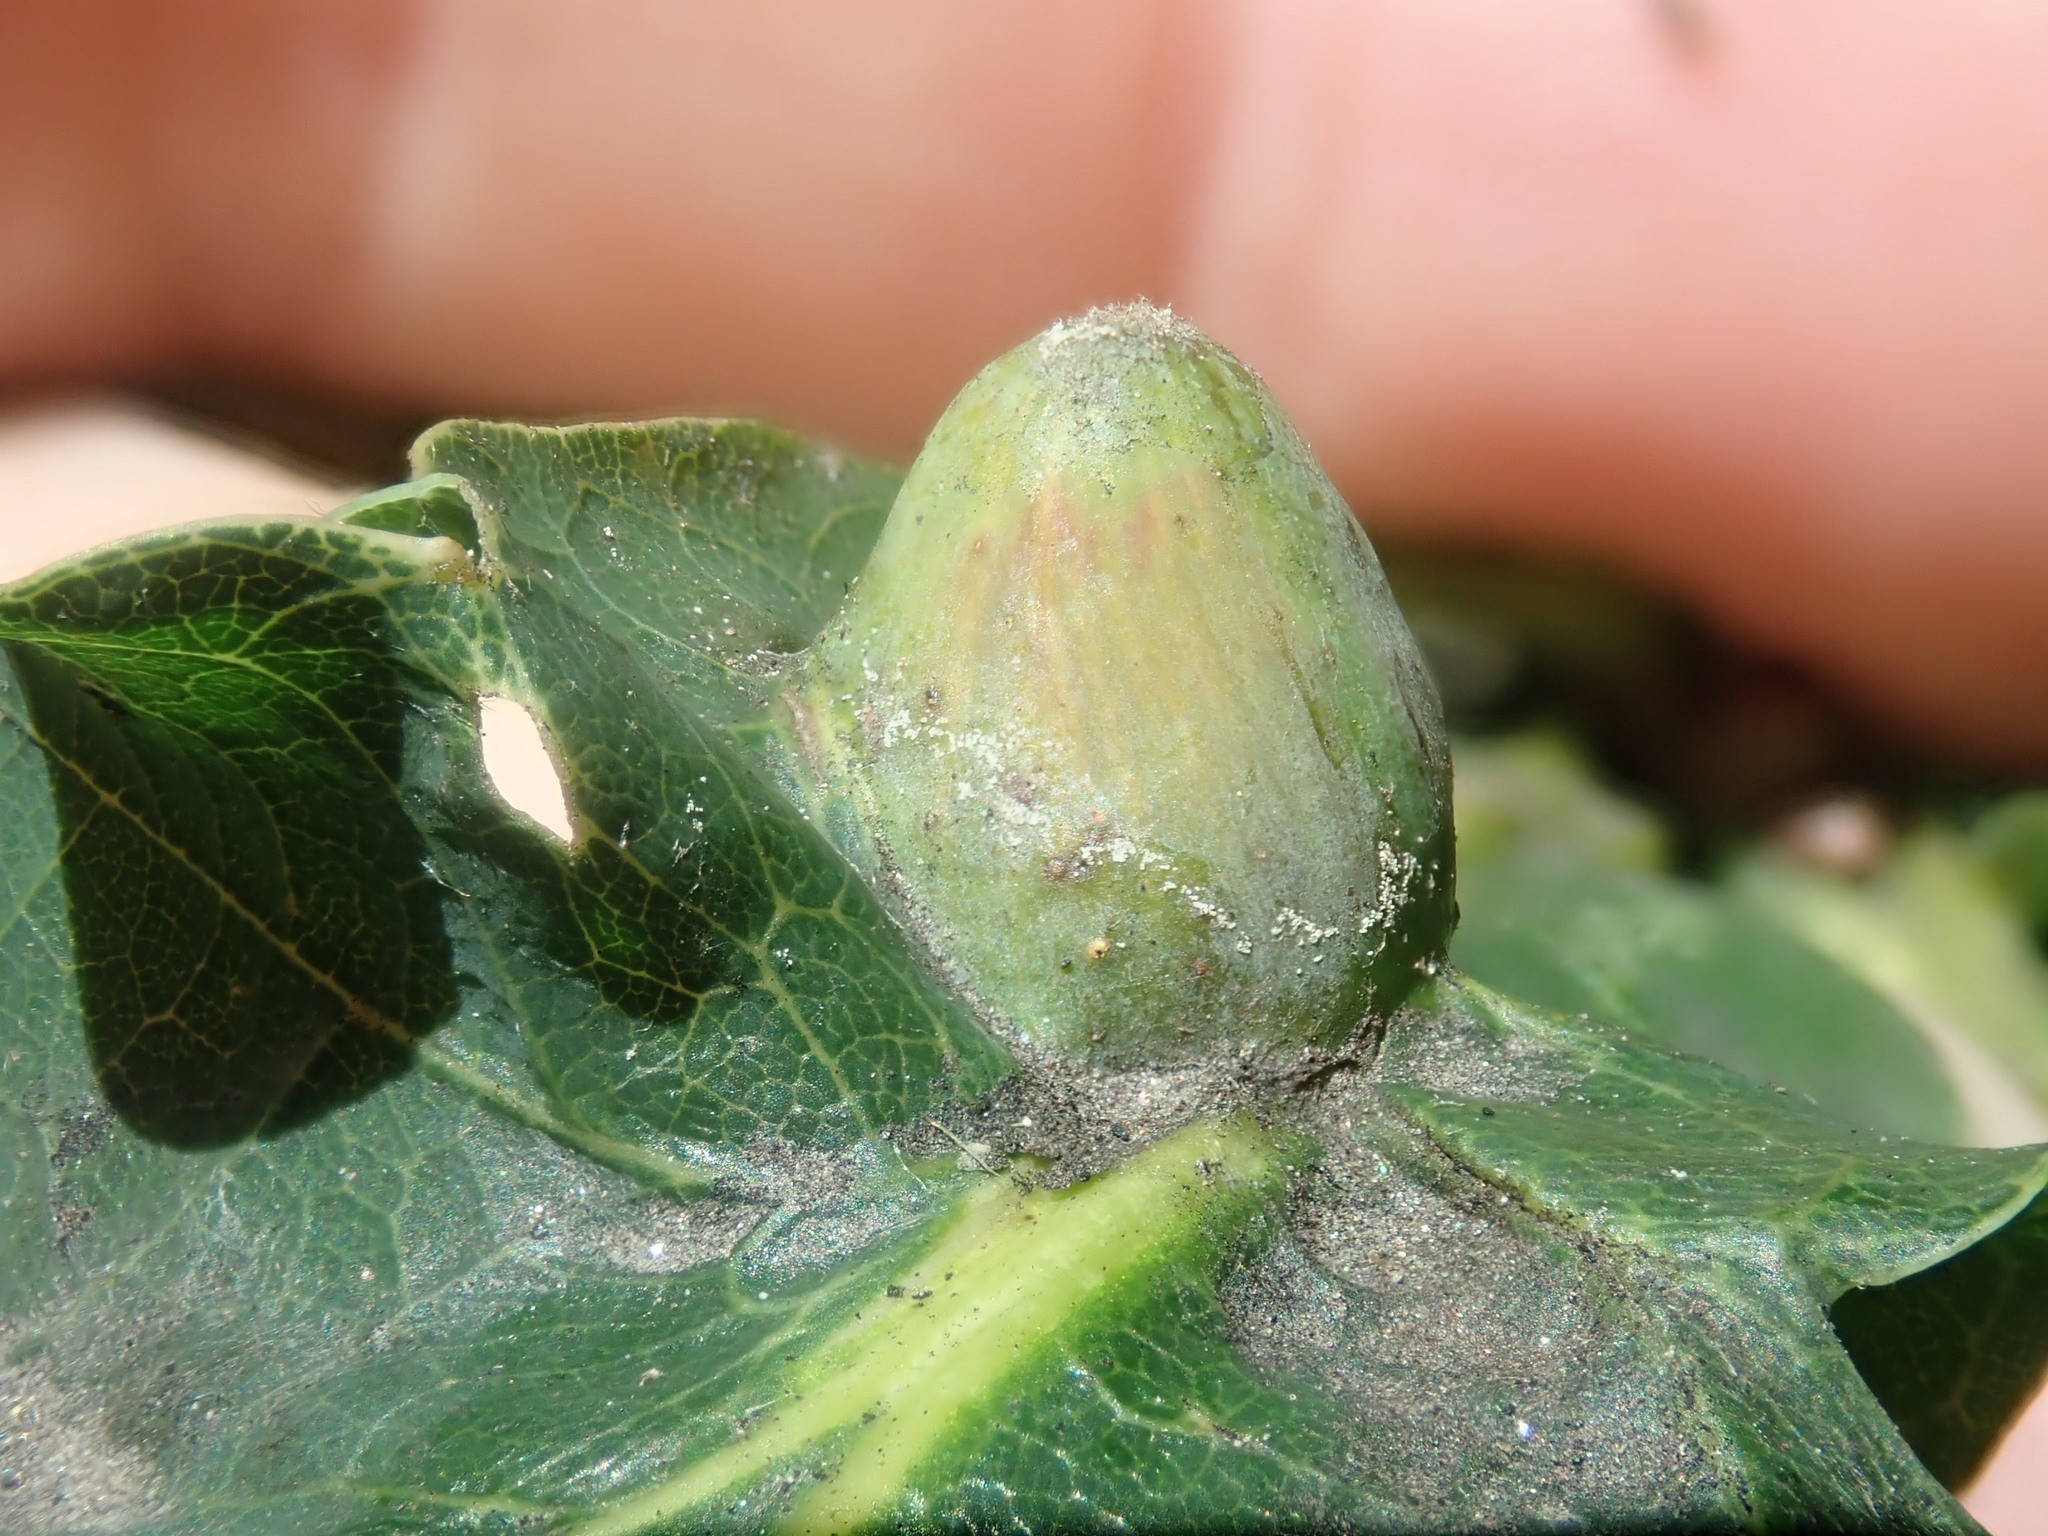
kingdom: Animalia
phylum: Arthropoda
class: Insecta
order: Hymenoptera
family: Cynipidae
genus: Andricus
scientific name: Andricus
